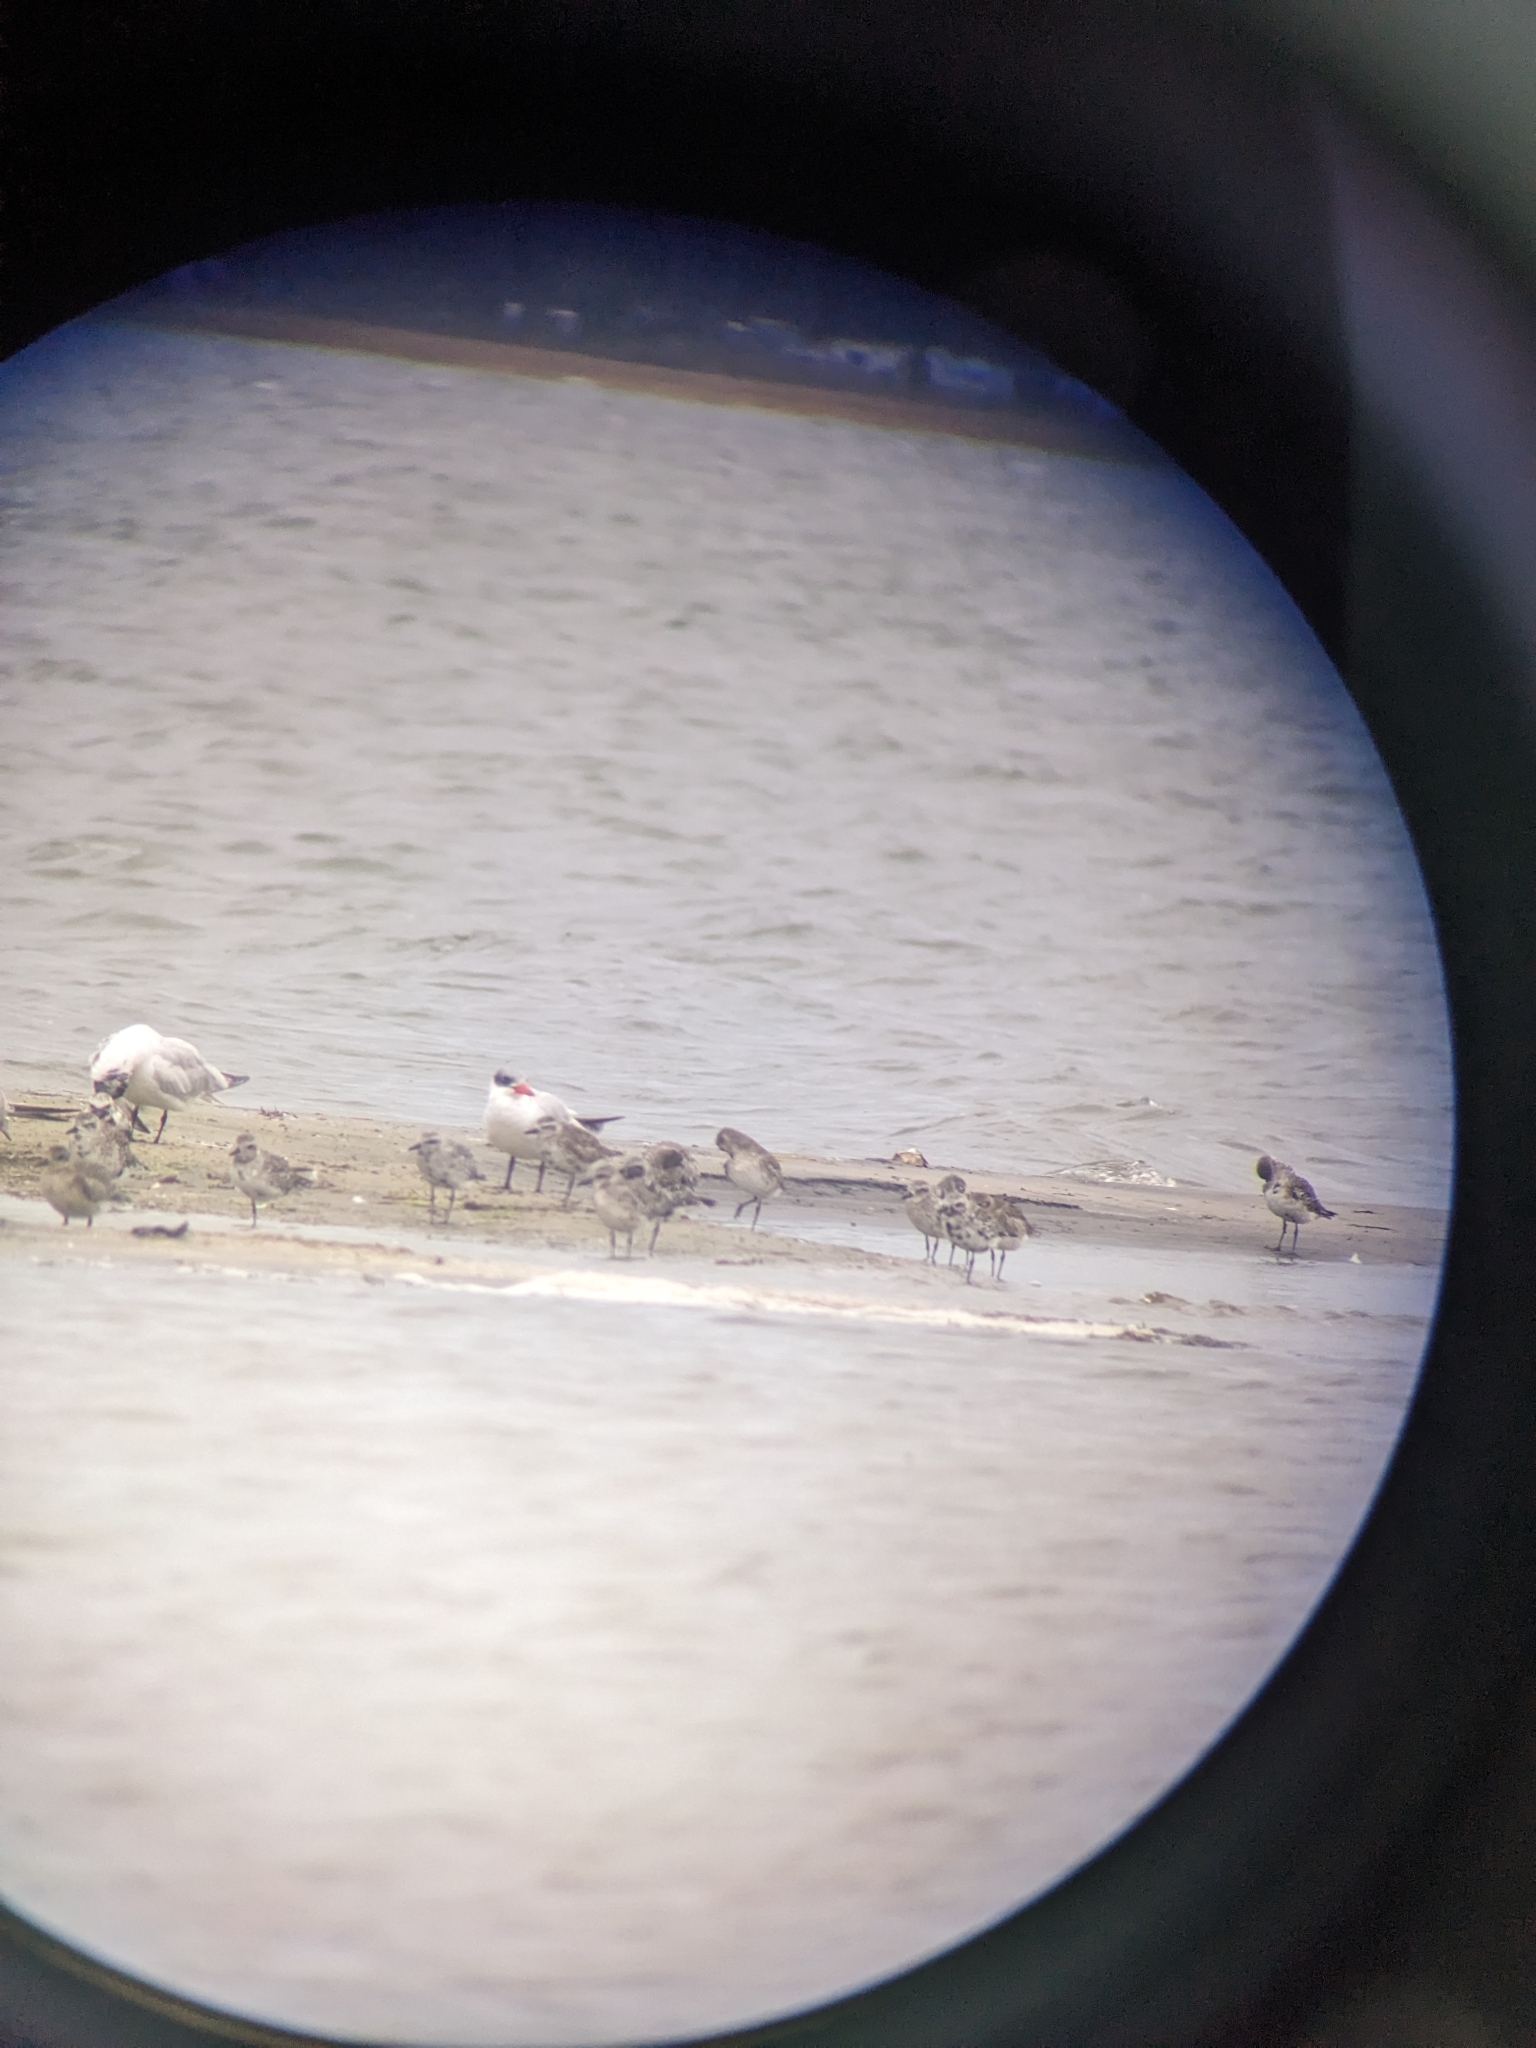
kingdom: Animalia
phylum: Chordata
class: Aves
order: Charadriiformes
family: Charadriidae
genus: Pluvialis
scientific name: Pluvialis squatarola
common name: Grey plover
